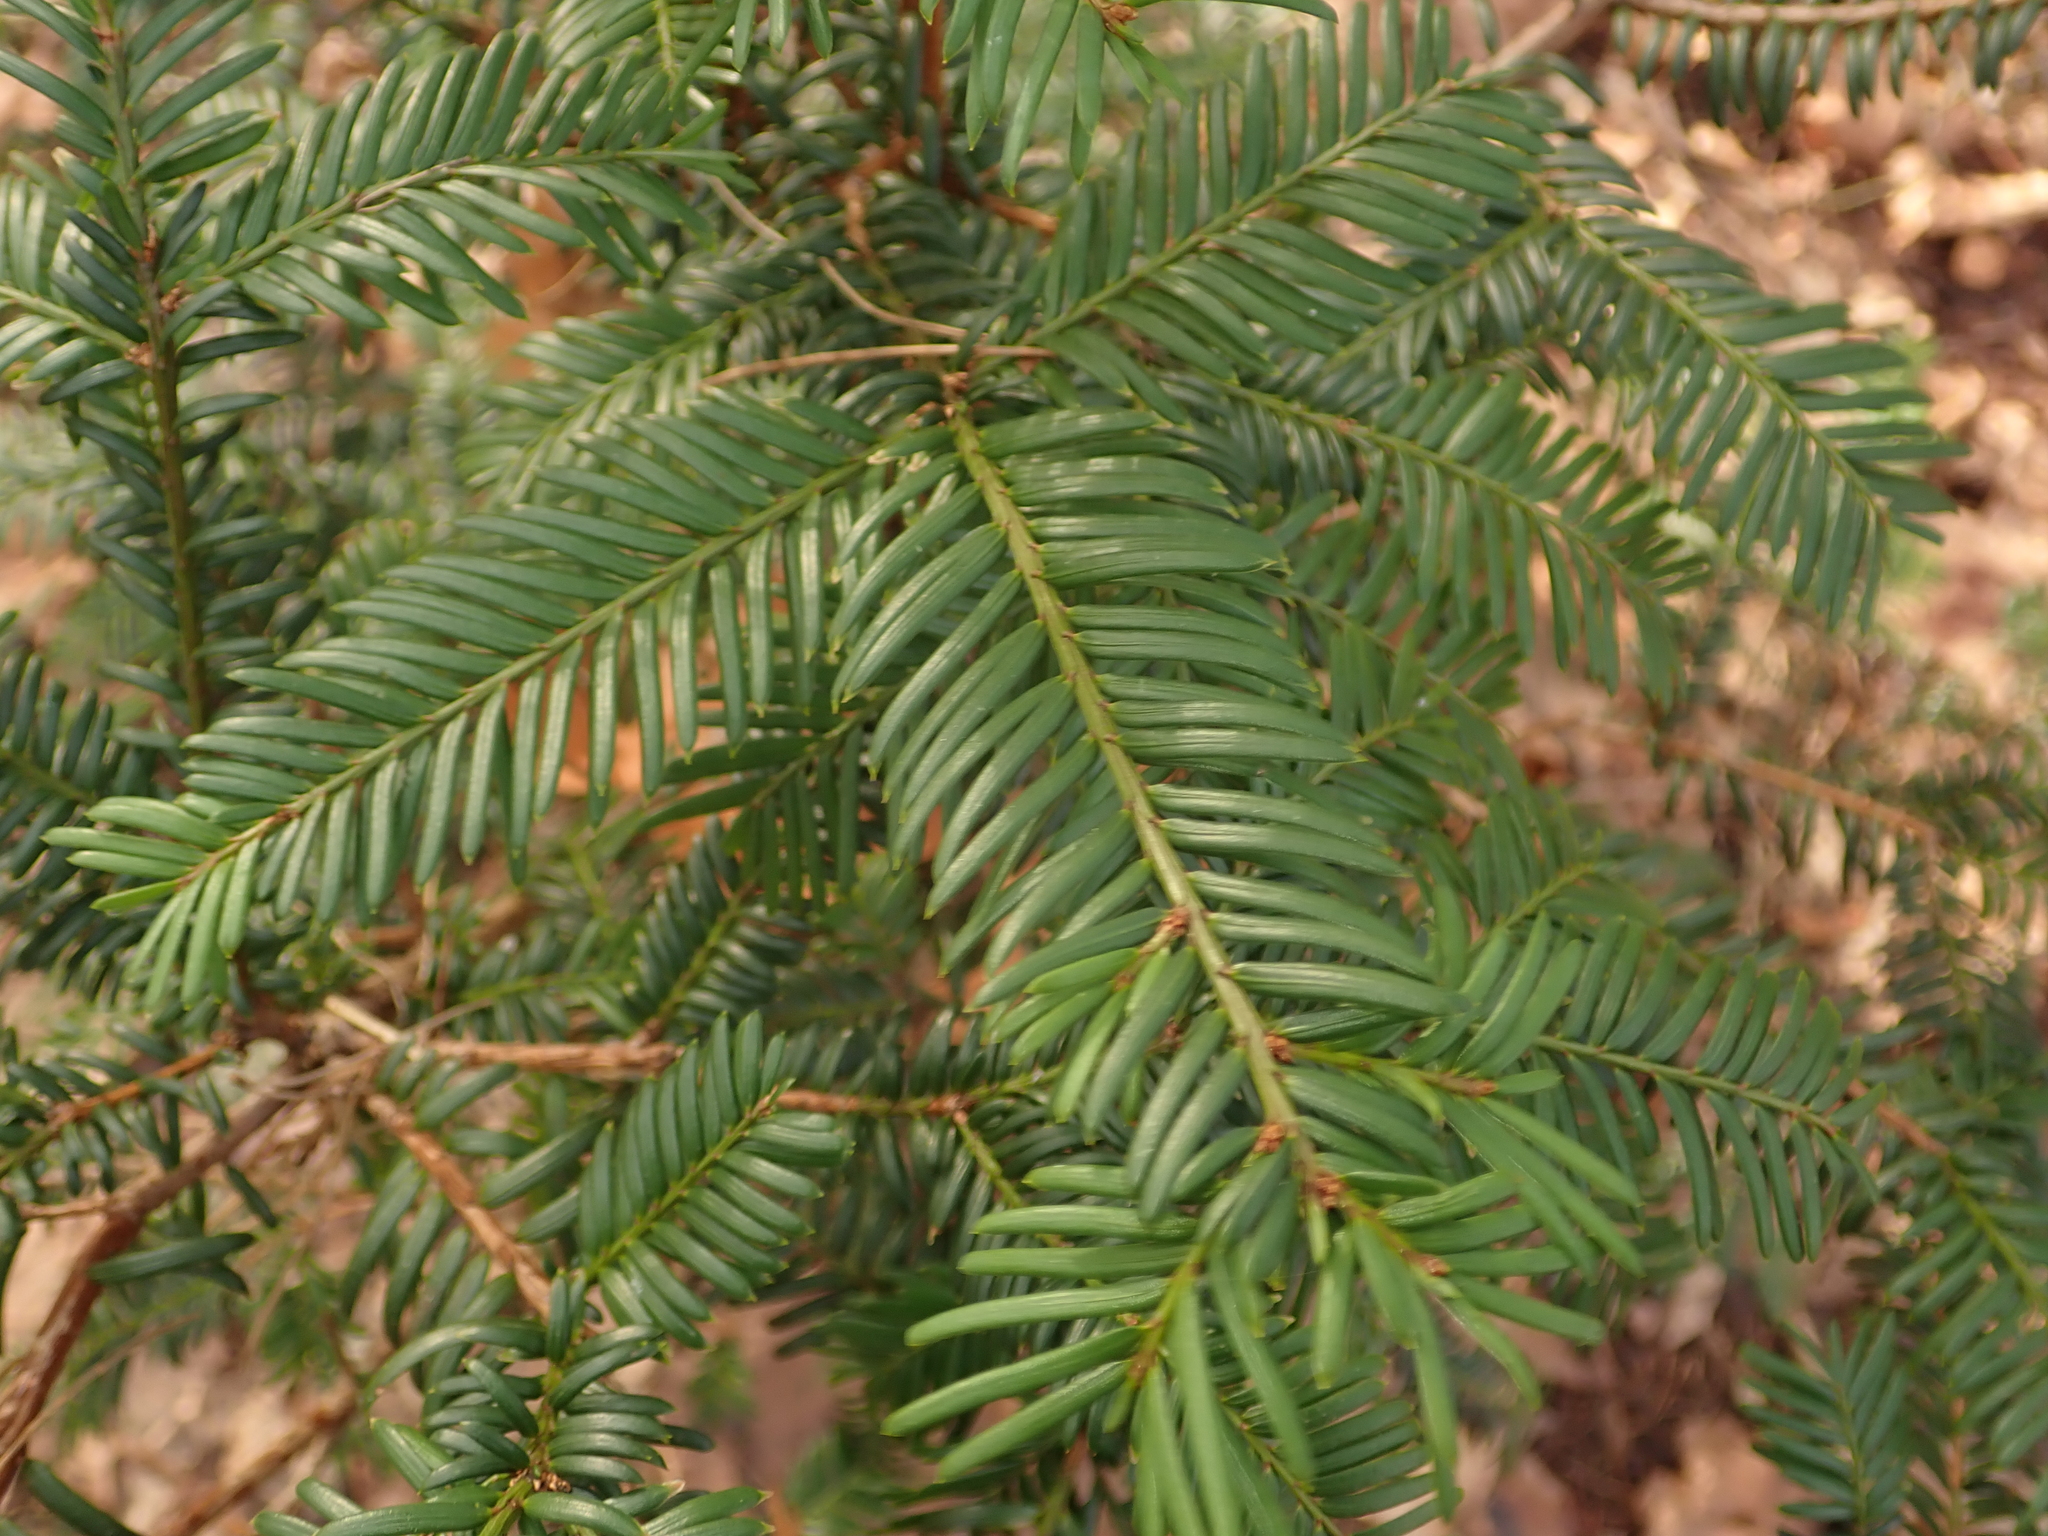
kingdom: Plantae
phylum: Tracheophyta
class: Pinopsida
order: Pinales
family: Taxaceae
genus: Taxus
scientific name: Taxus baccata
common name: Yew
